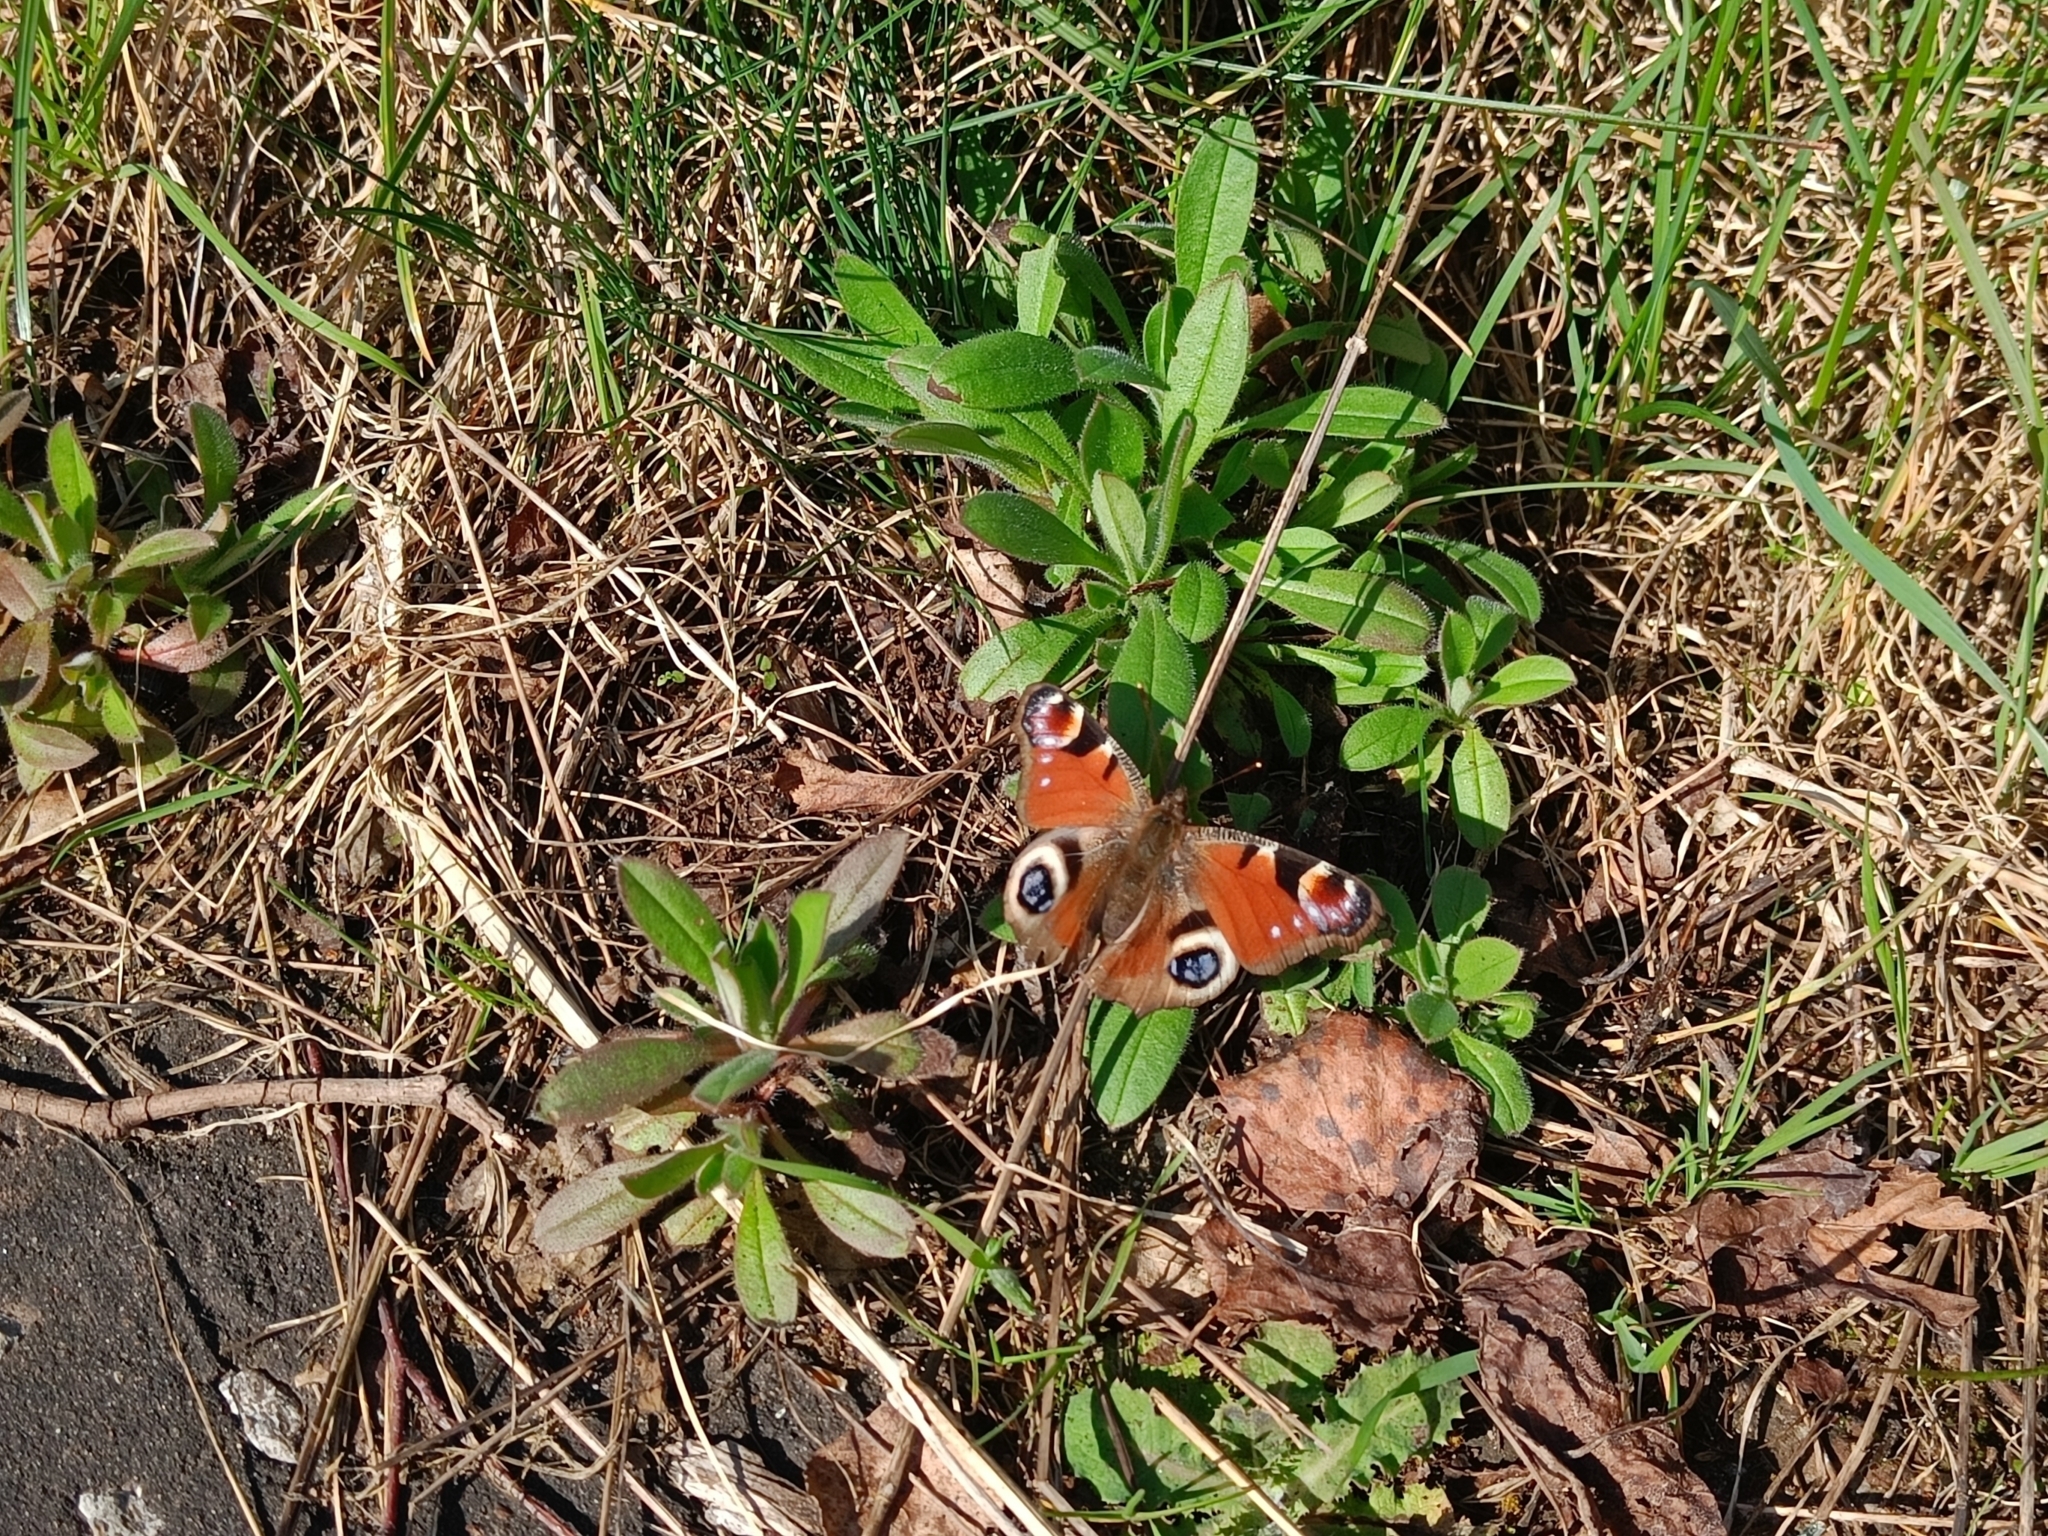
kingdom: Animalia
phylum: Arthropoda
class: Insecta
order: Lepidoptera
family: Nymphalidae
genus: Aglais
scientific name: Aglais io
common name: Peacock
